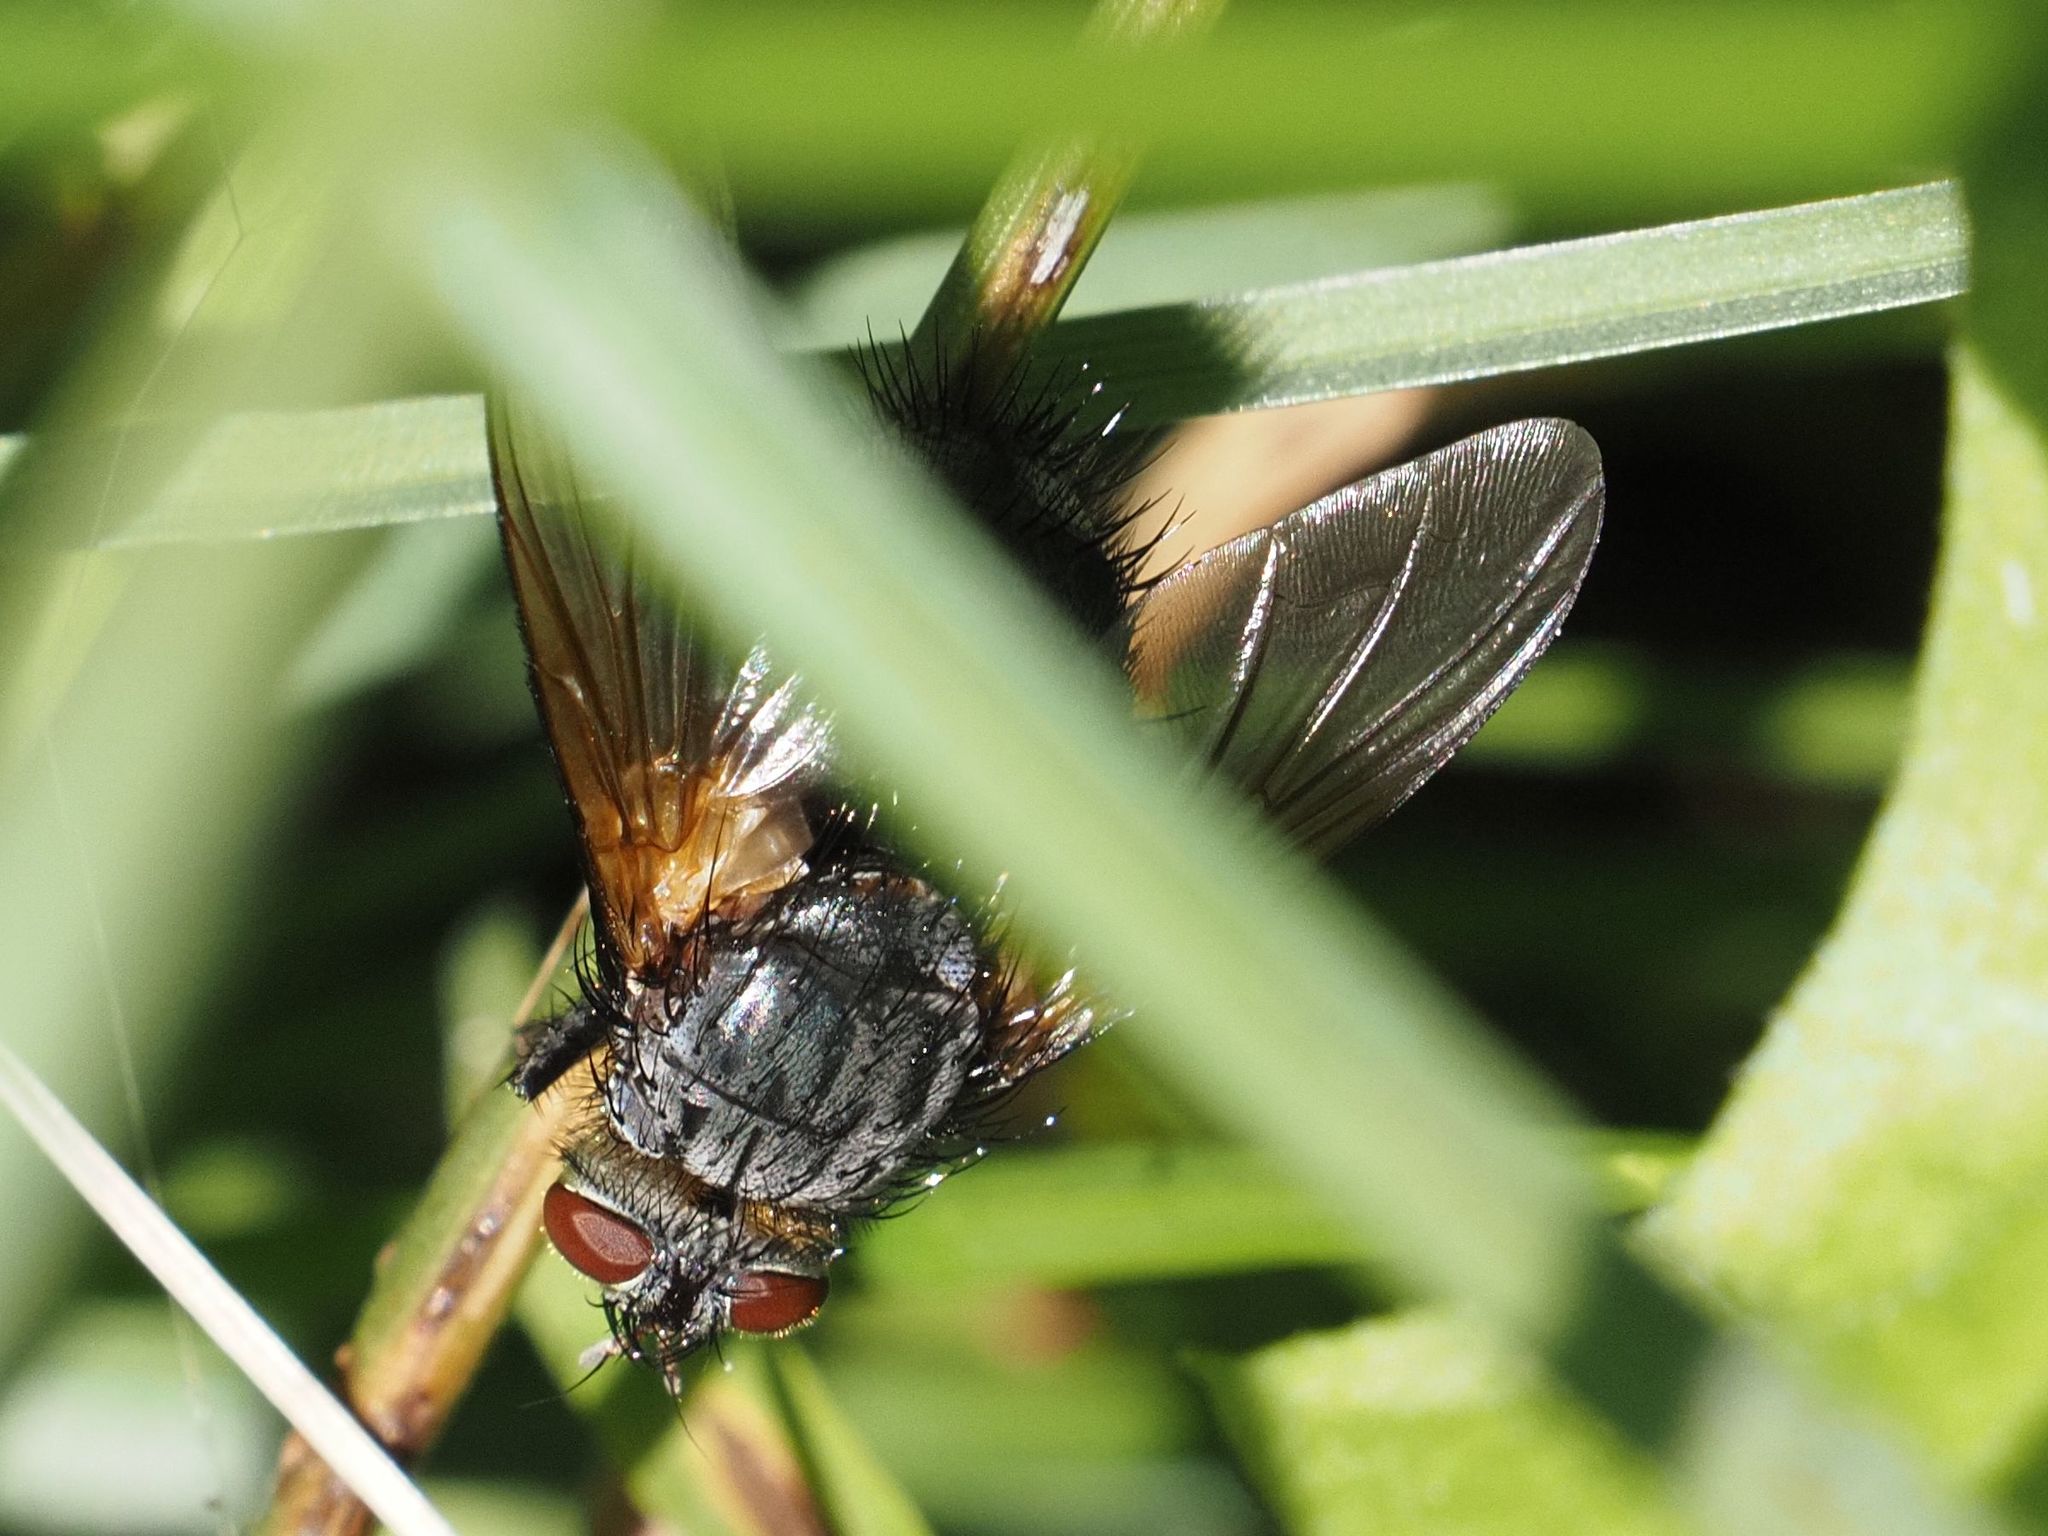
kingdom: Animalia
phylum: Arthropoda
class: Insecta
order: Diptera
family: Tachinidae
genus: Nemoraea
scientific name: Nemoraea pellucida
